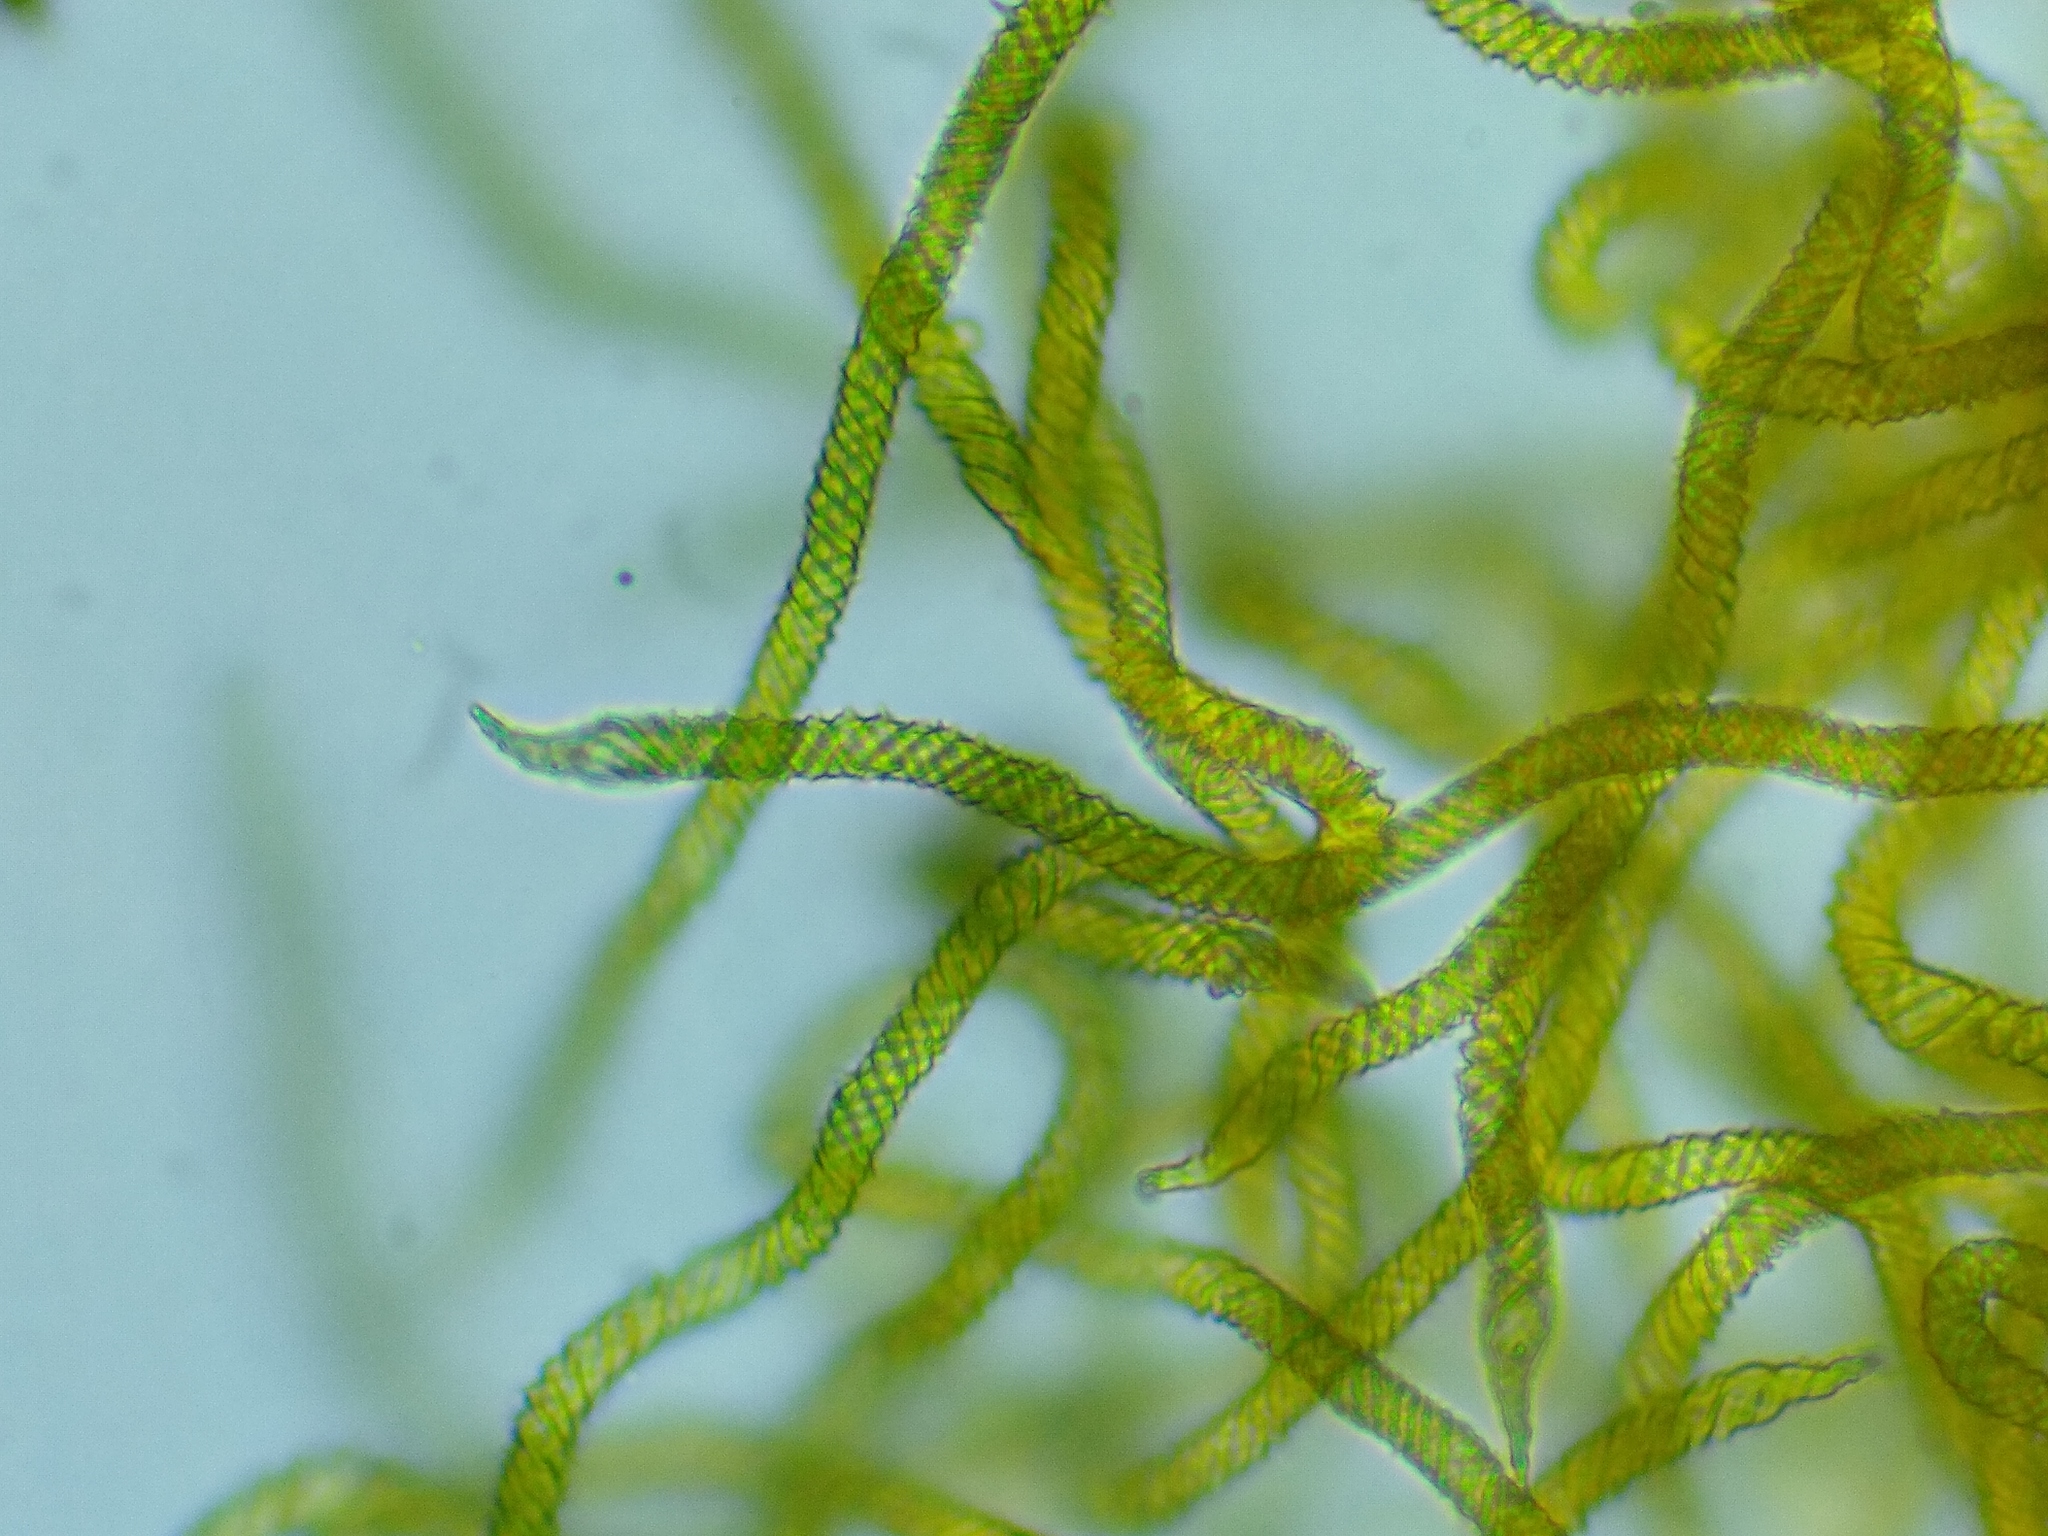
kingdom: Protozoa
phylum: Mycetozoa
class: Myxomycetes
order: Trichiales
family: Trichiaceae
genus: Oligonema
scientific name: Oligonema persimile
